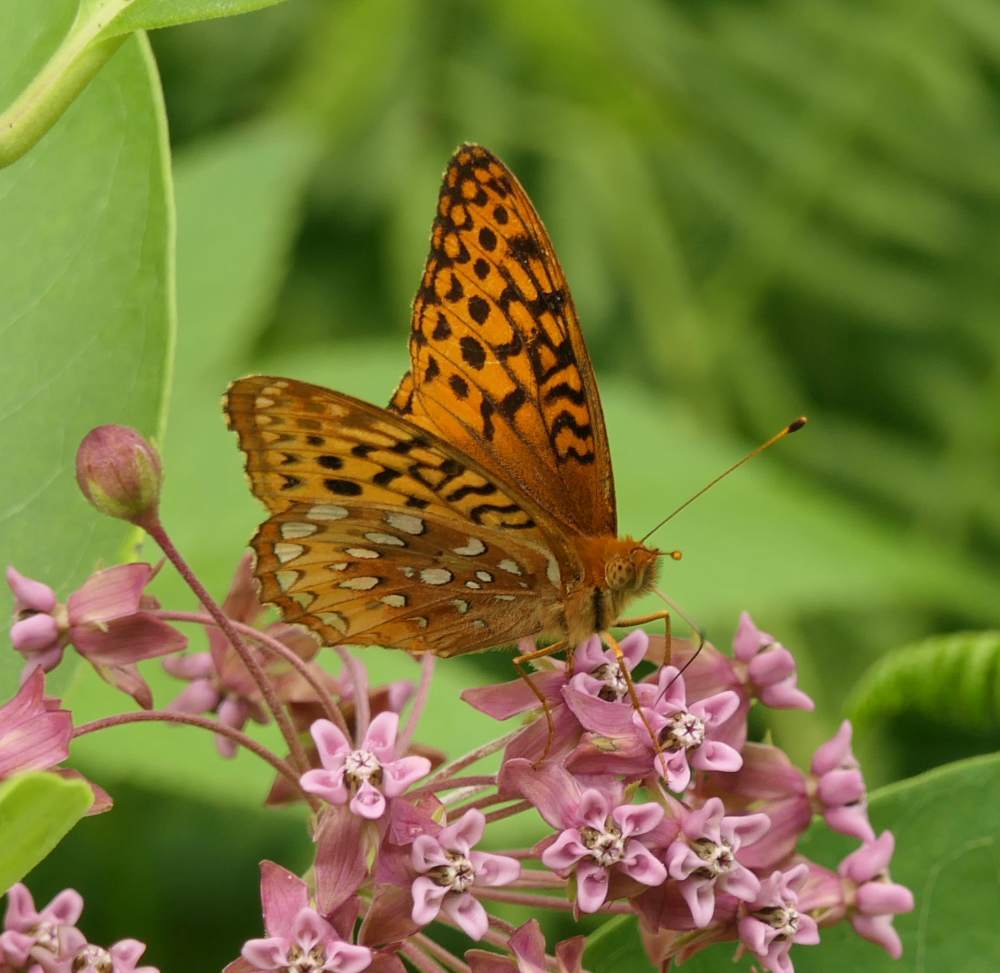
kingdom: Animalia
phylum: Arthropoda
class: Insecta
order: Lepidoptera
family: Nymphalidae
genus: Speyeria
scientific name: Speyeria cybele
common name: Great spangled fritillary
